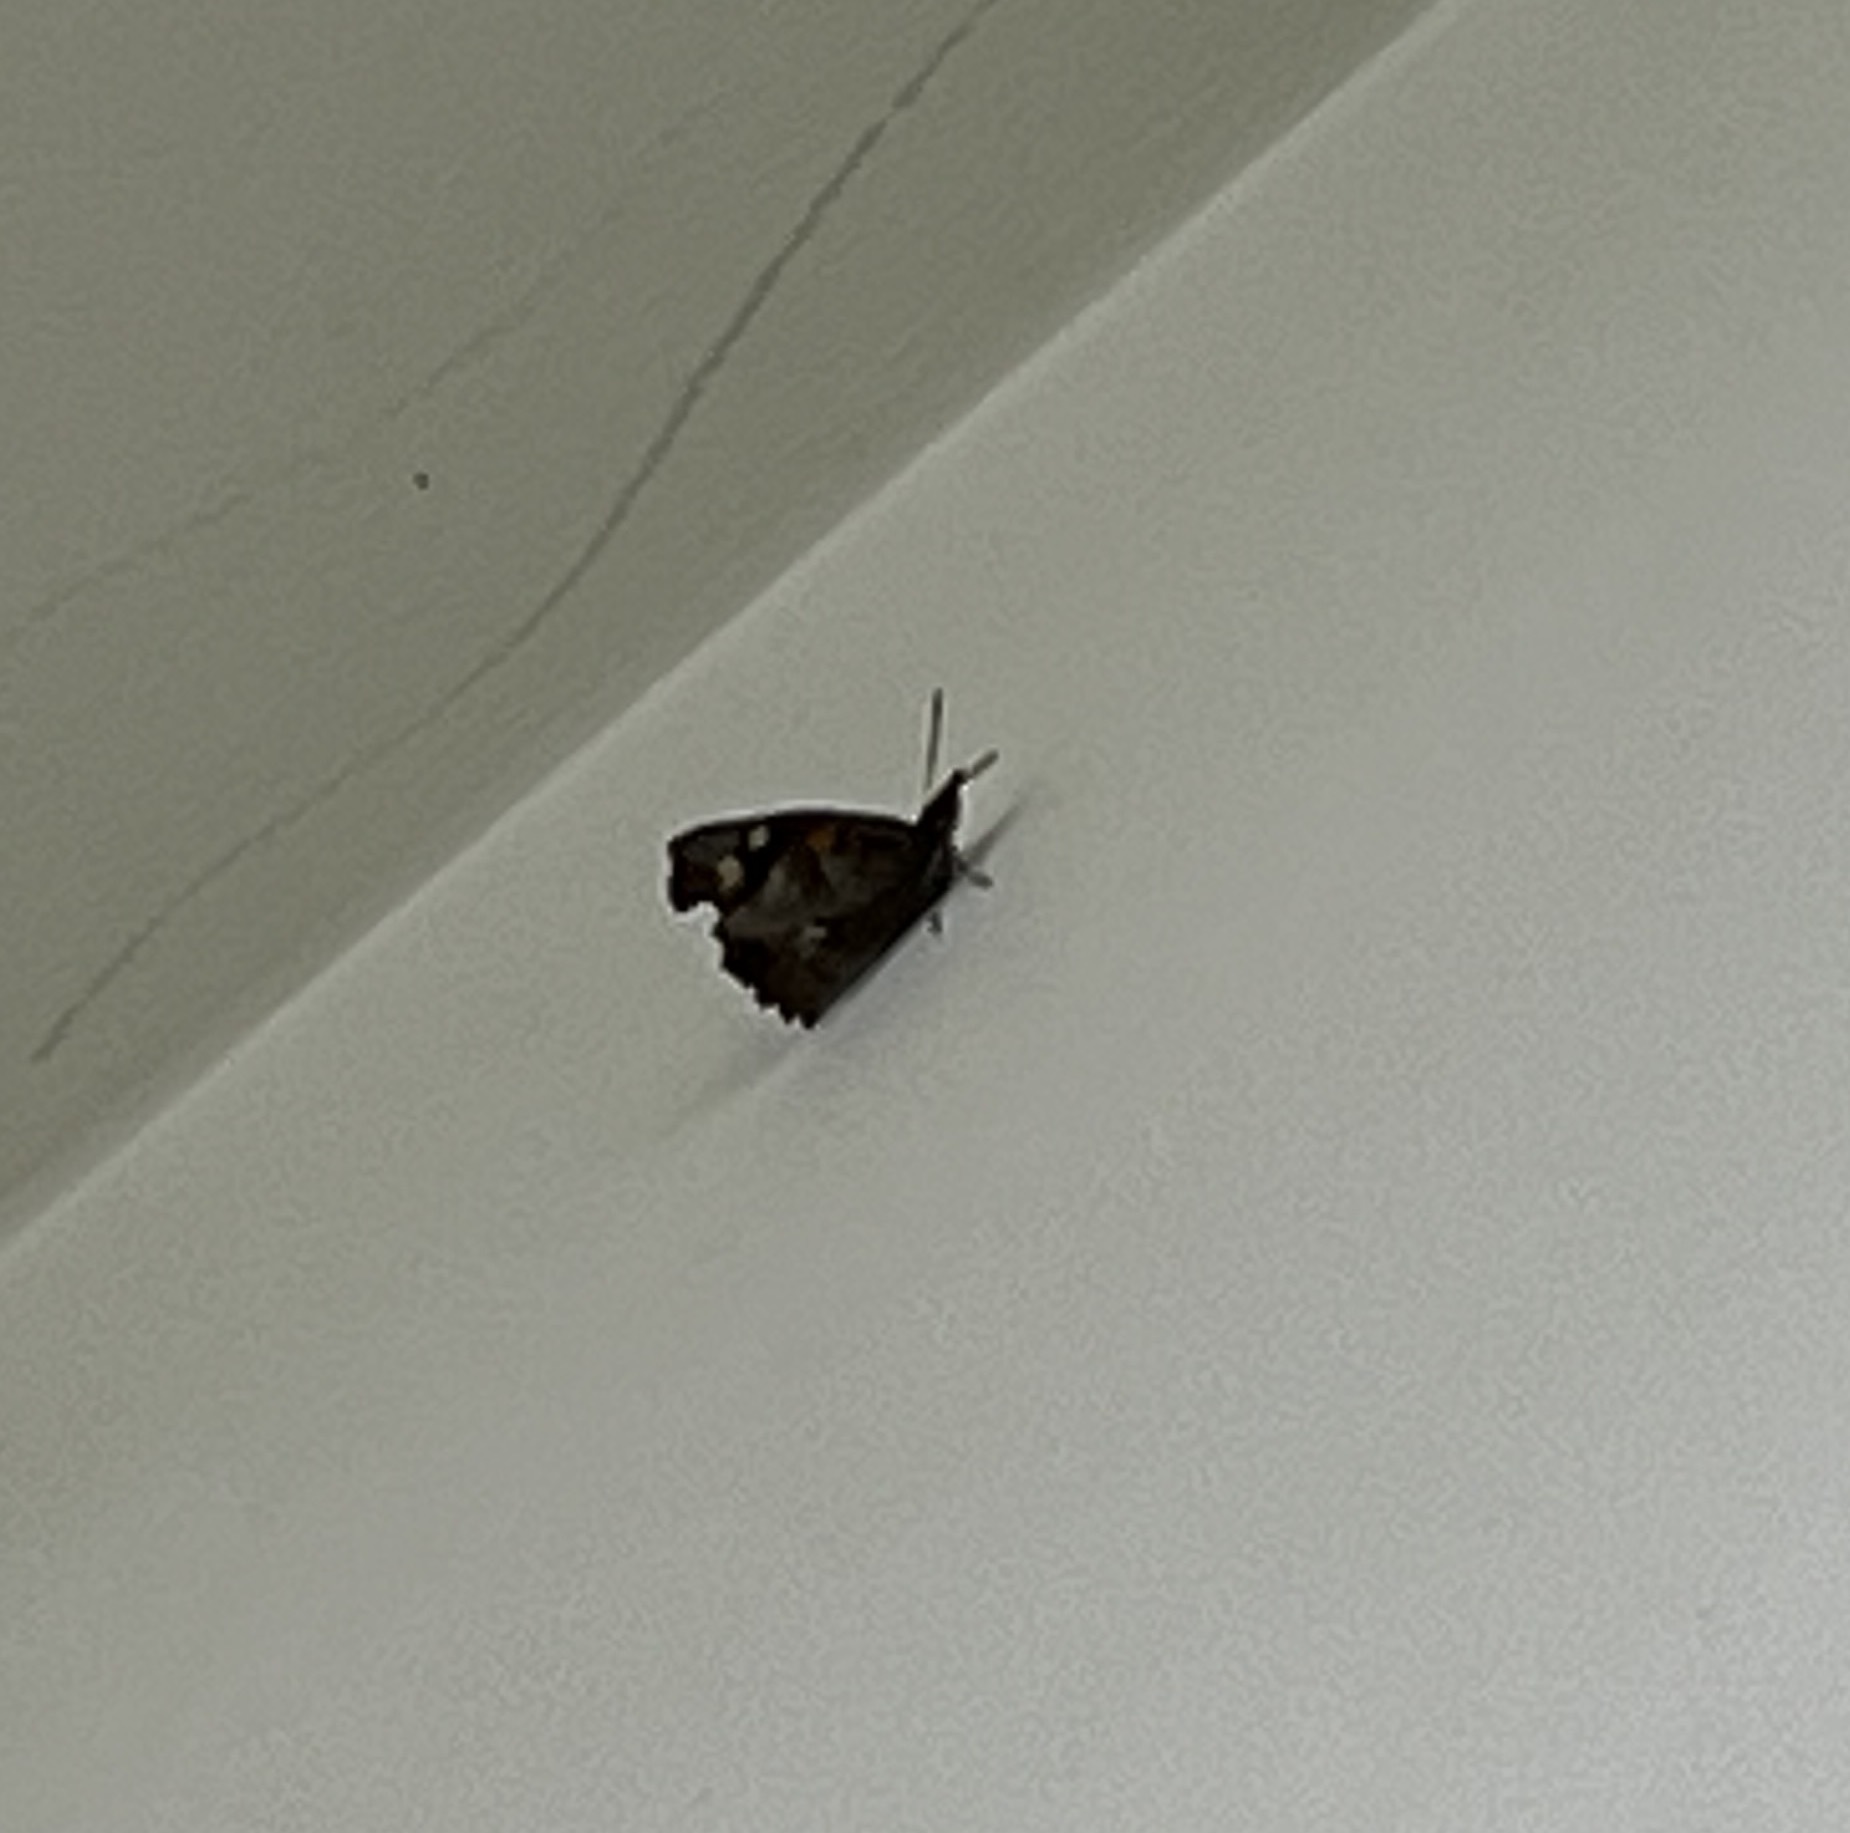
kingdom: Animalia
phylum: Arthropoda
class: Insecta
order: Lepidoptera
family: Nymphalidae
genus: Libythea
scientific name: Libythea celtis
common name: Nettle-tree butterfly
